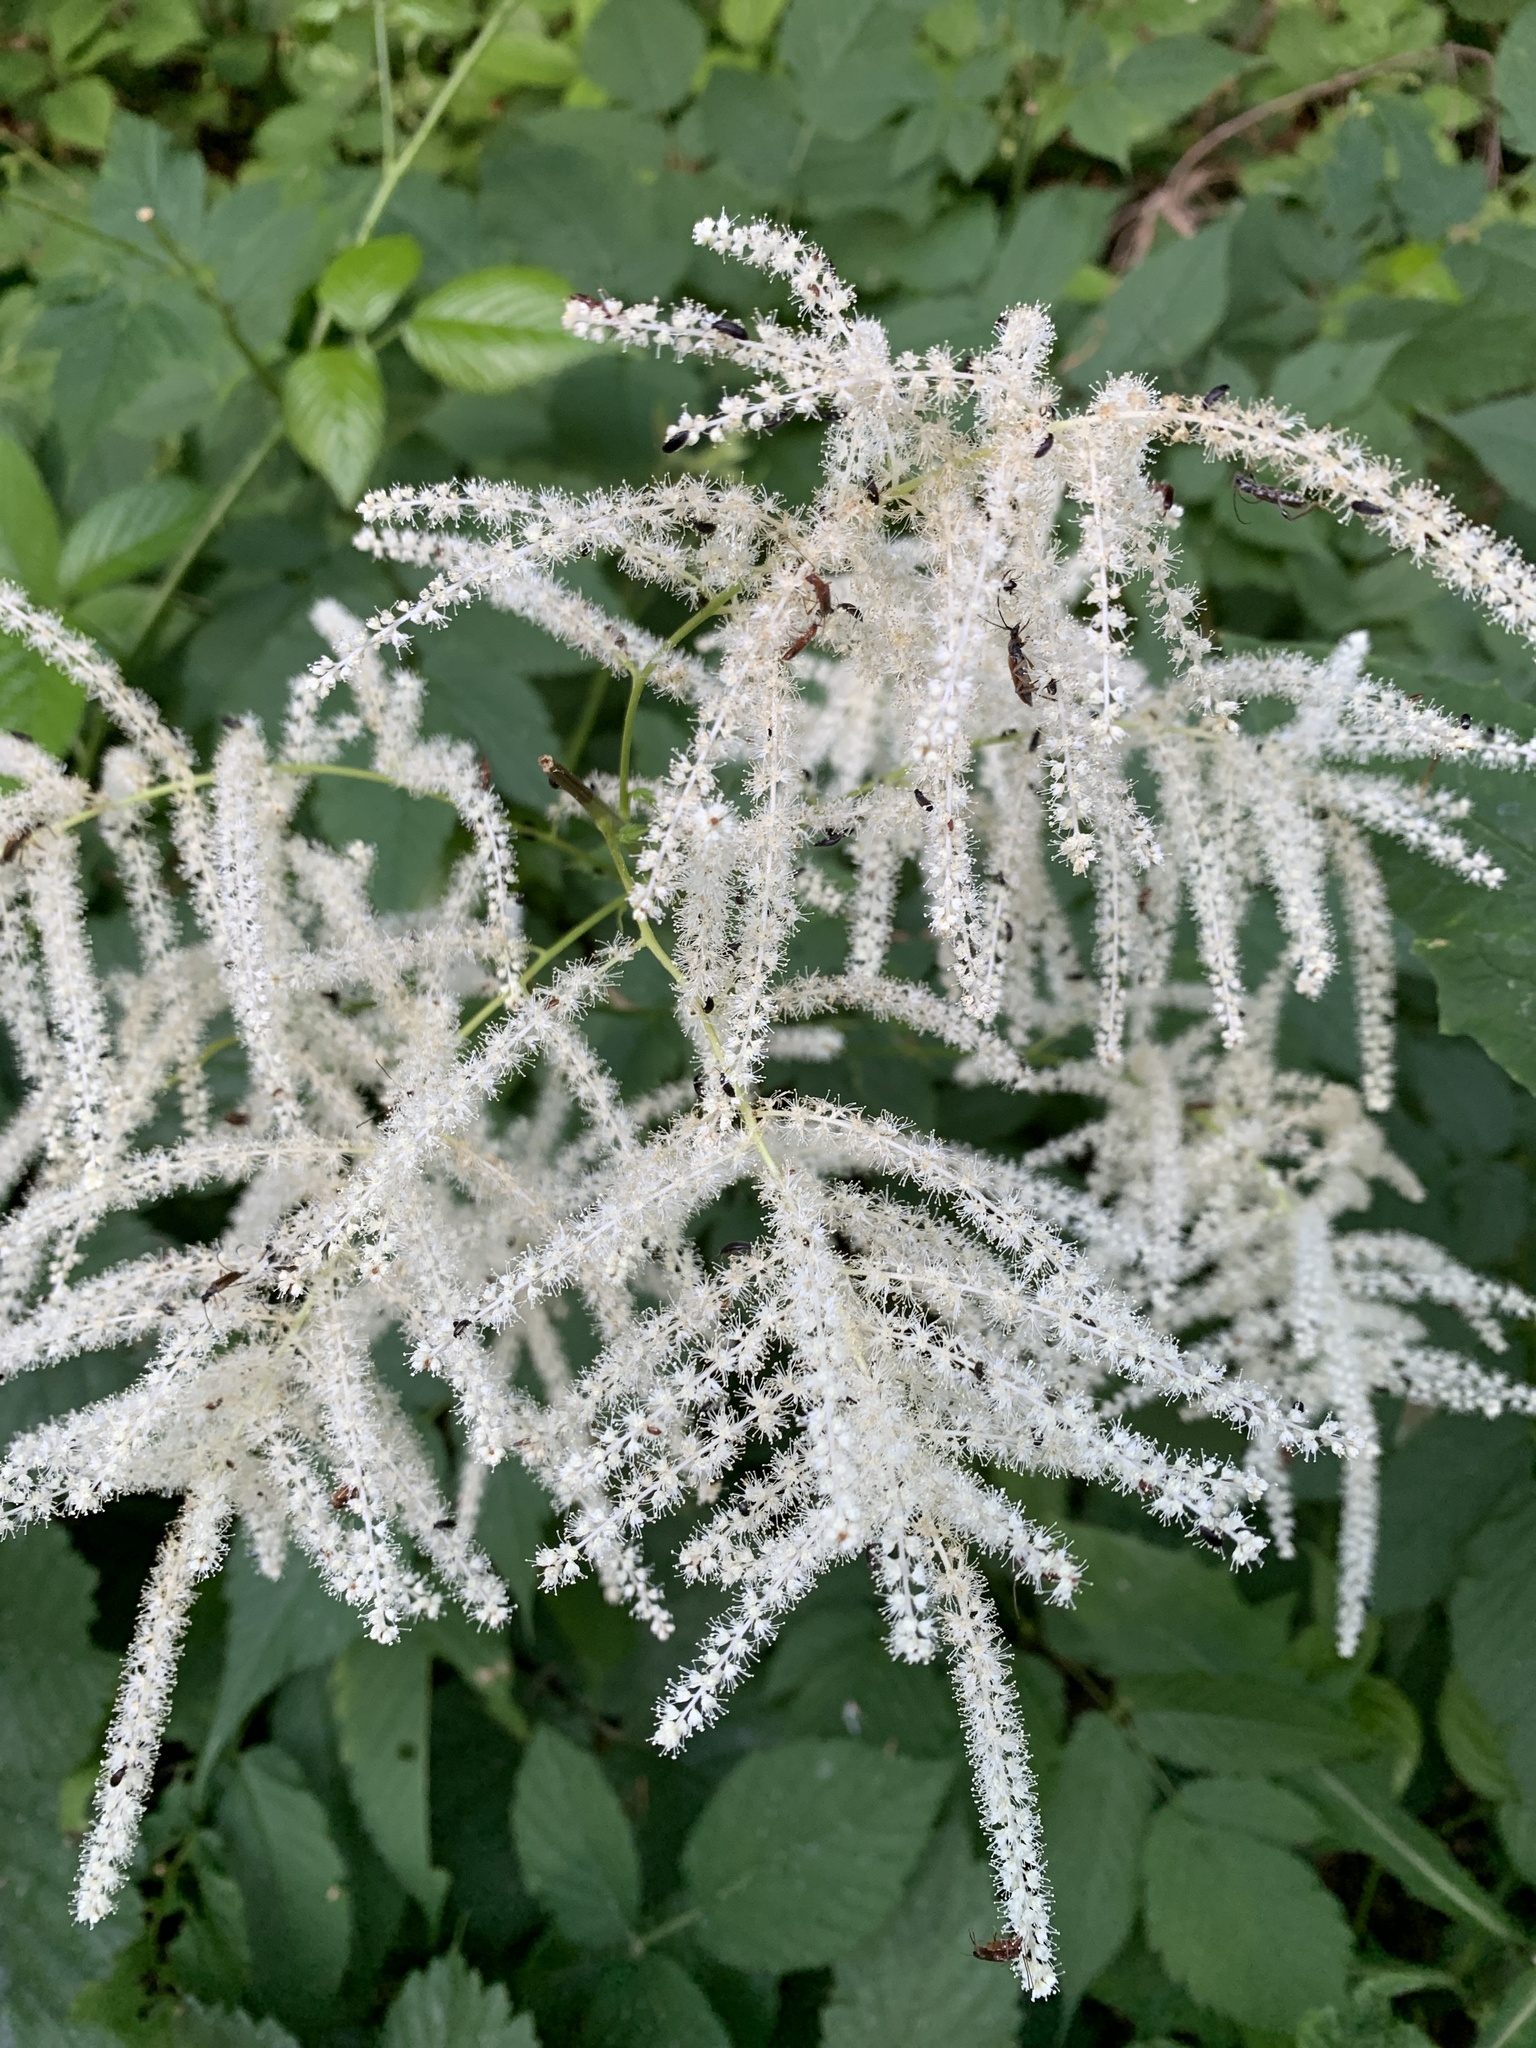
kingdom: Plantae
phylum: Tracheophyta
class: Magnoliopsida
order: Rosales
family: Rosaceae
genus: Aruncus
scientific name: Aruncus dioicus
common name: Buck's-beard
